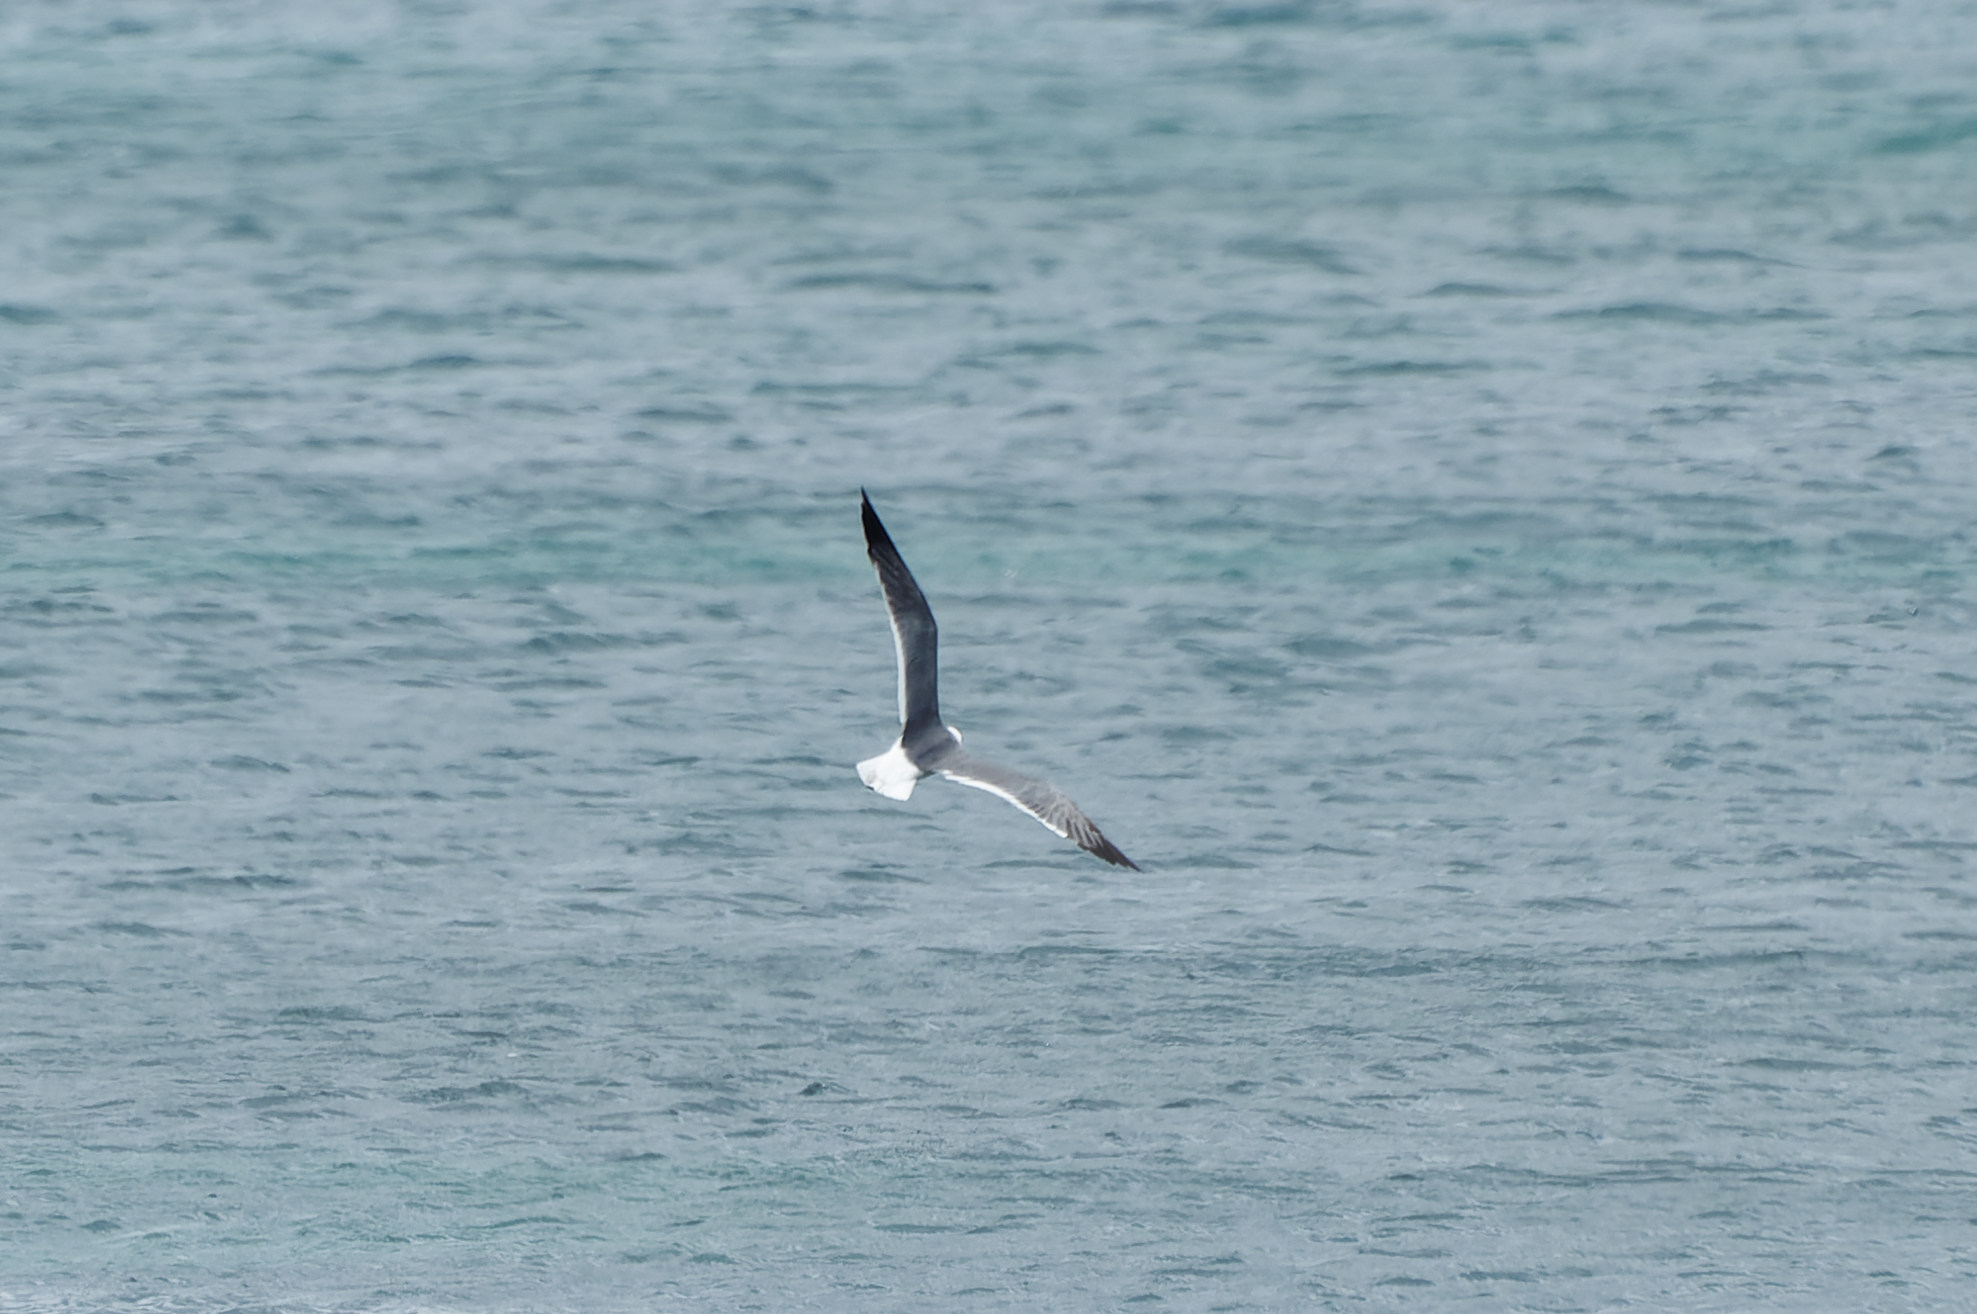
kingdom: Animalia
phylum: Chordata
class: Aves
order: Charadriiformes
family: Laridae
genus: Leucophaeus
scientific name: Leucophaeus atricilla
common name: Laughing gull
